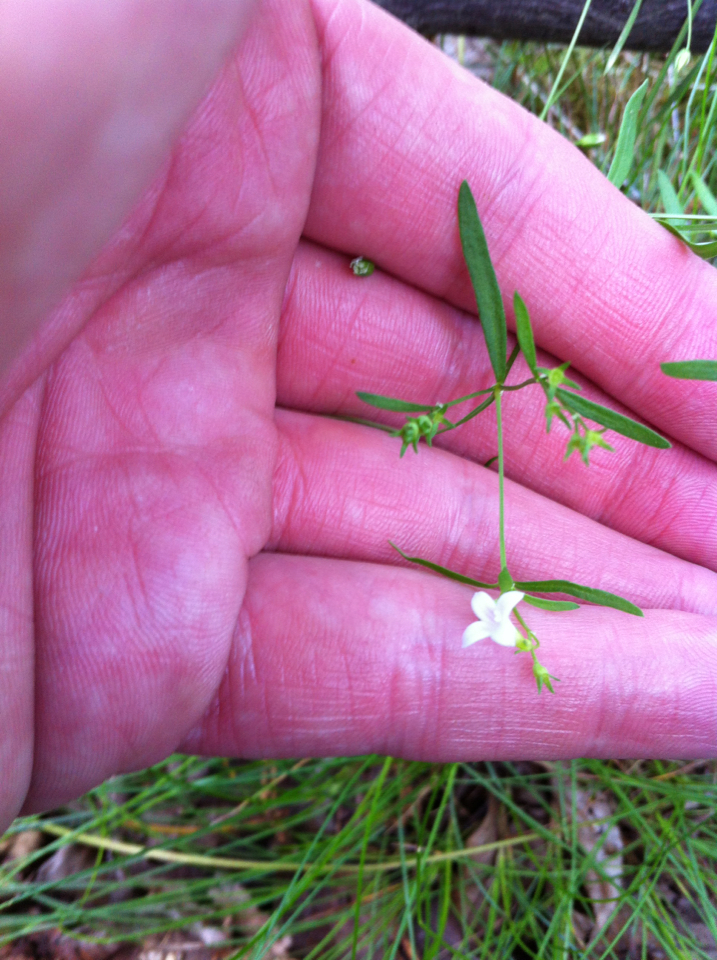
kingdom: Plantae
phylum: Tracheophyta
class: Magnoliopsida
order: Gentianales
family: Rubiaceae
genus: Houstonia
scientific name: Houstonia longifolia
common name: Long-leaved bluets
